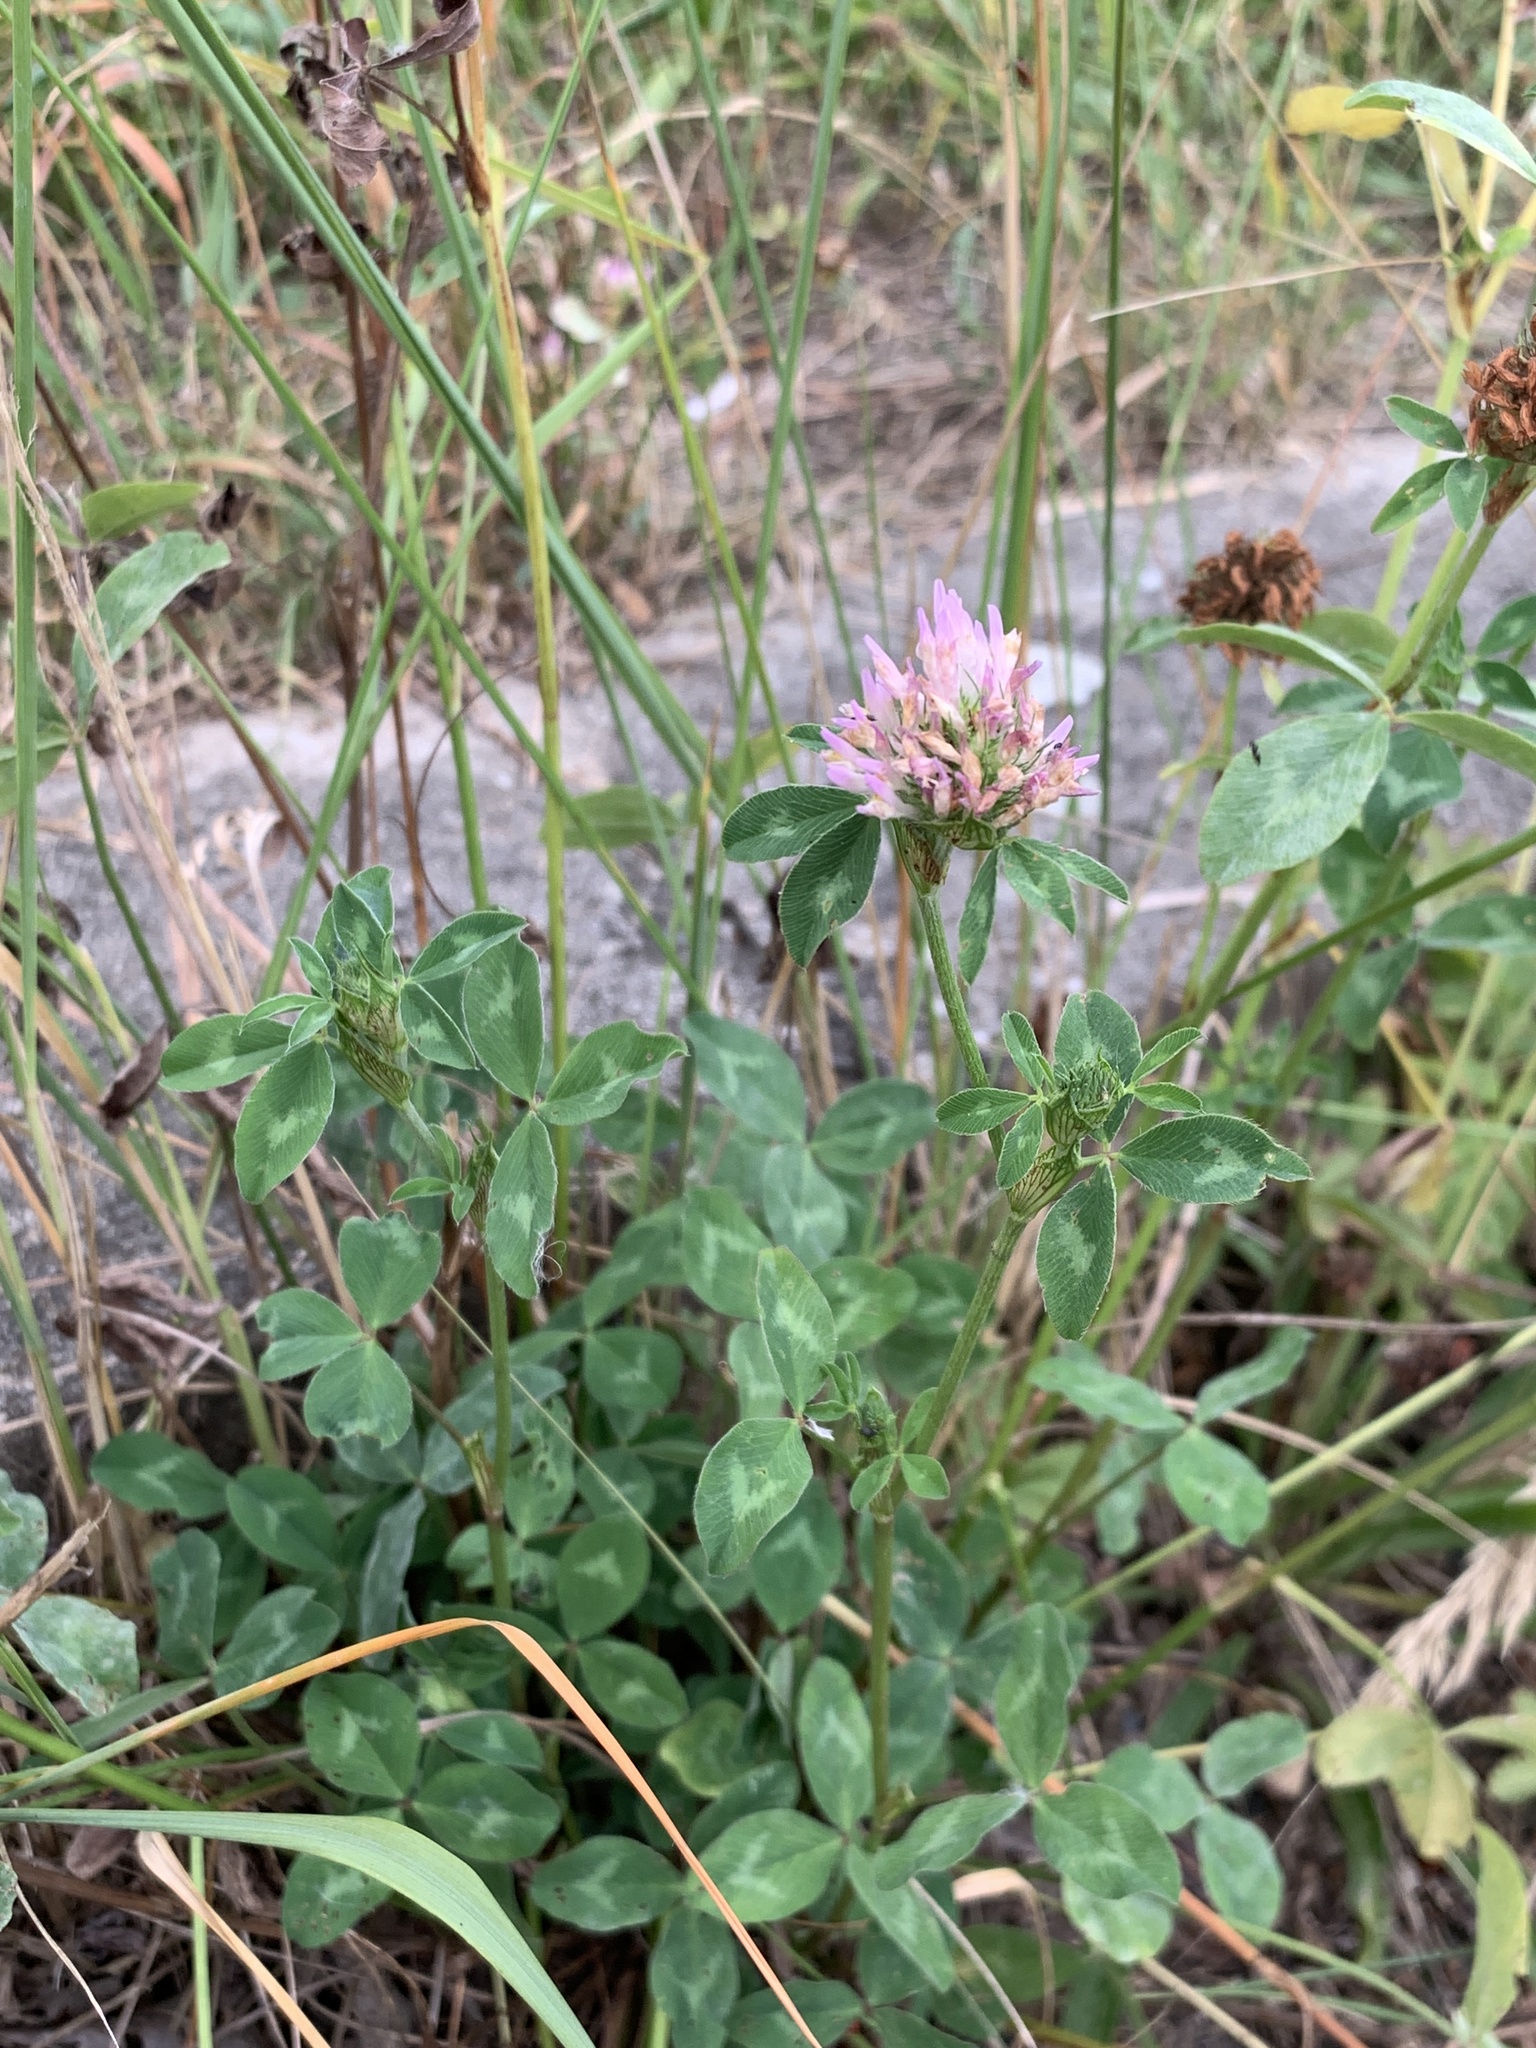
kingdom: Plantae
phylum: Tracheophyta
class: Magnoliopsida
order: Fabales
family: Fabaceae
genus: Trifolium
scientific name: Trifolium pratense
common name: Red clover
